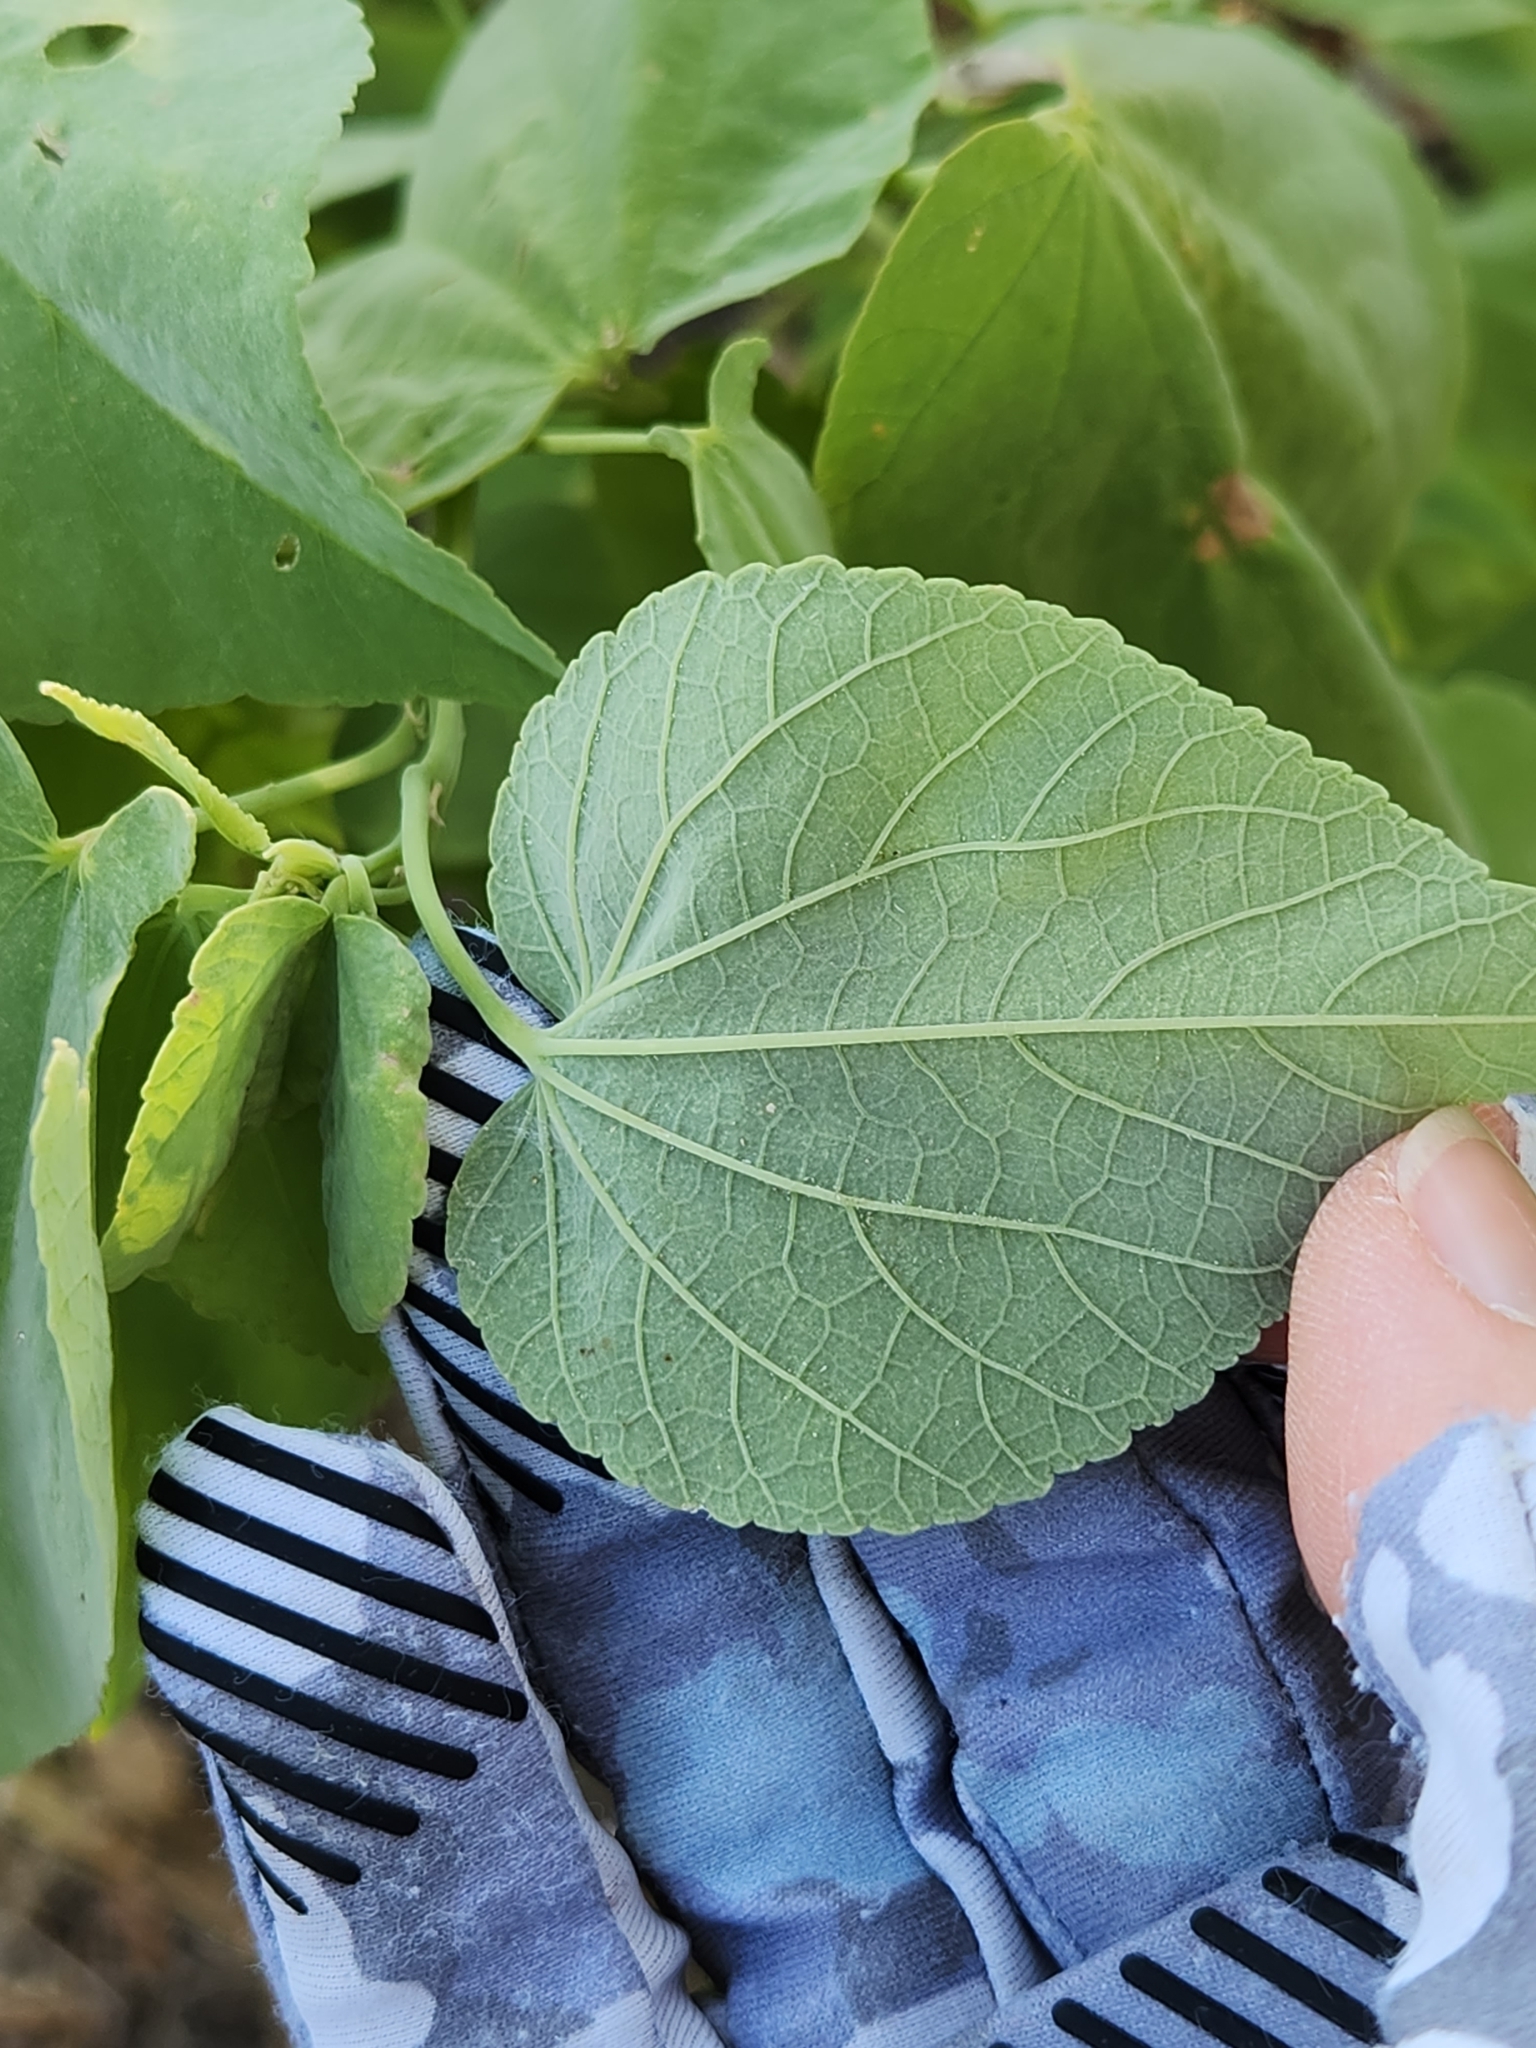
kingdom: Plantae
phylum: Tracheophyta
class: Magnoliopsida
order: Malvales
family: Malvaceae
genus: Abutilon
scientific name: Abutilon trisulcatum
